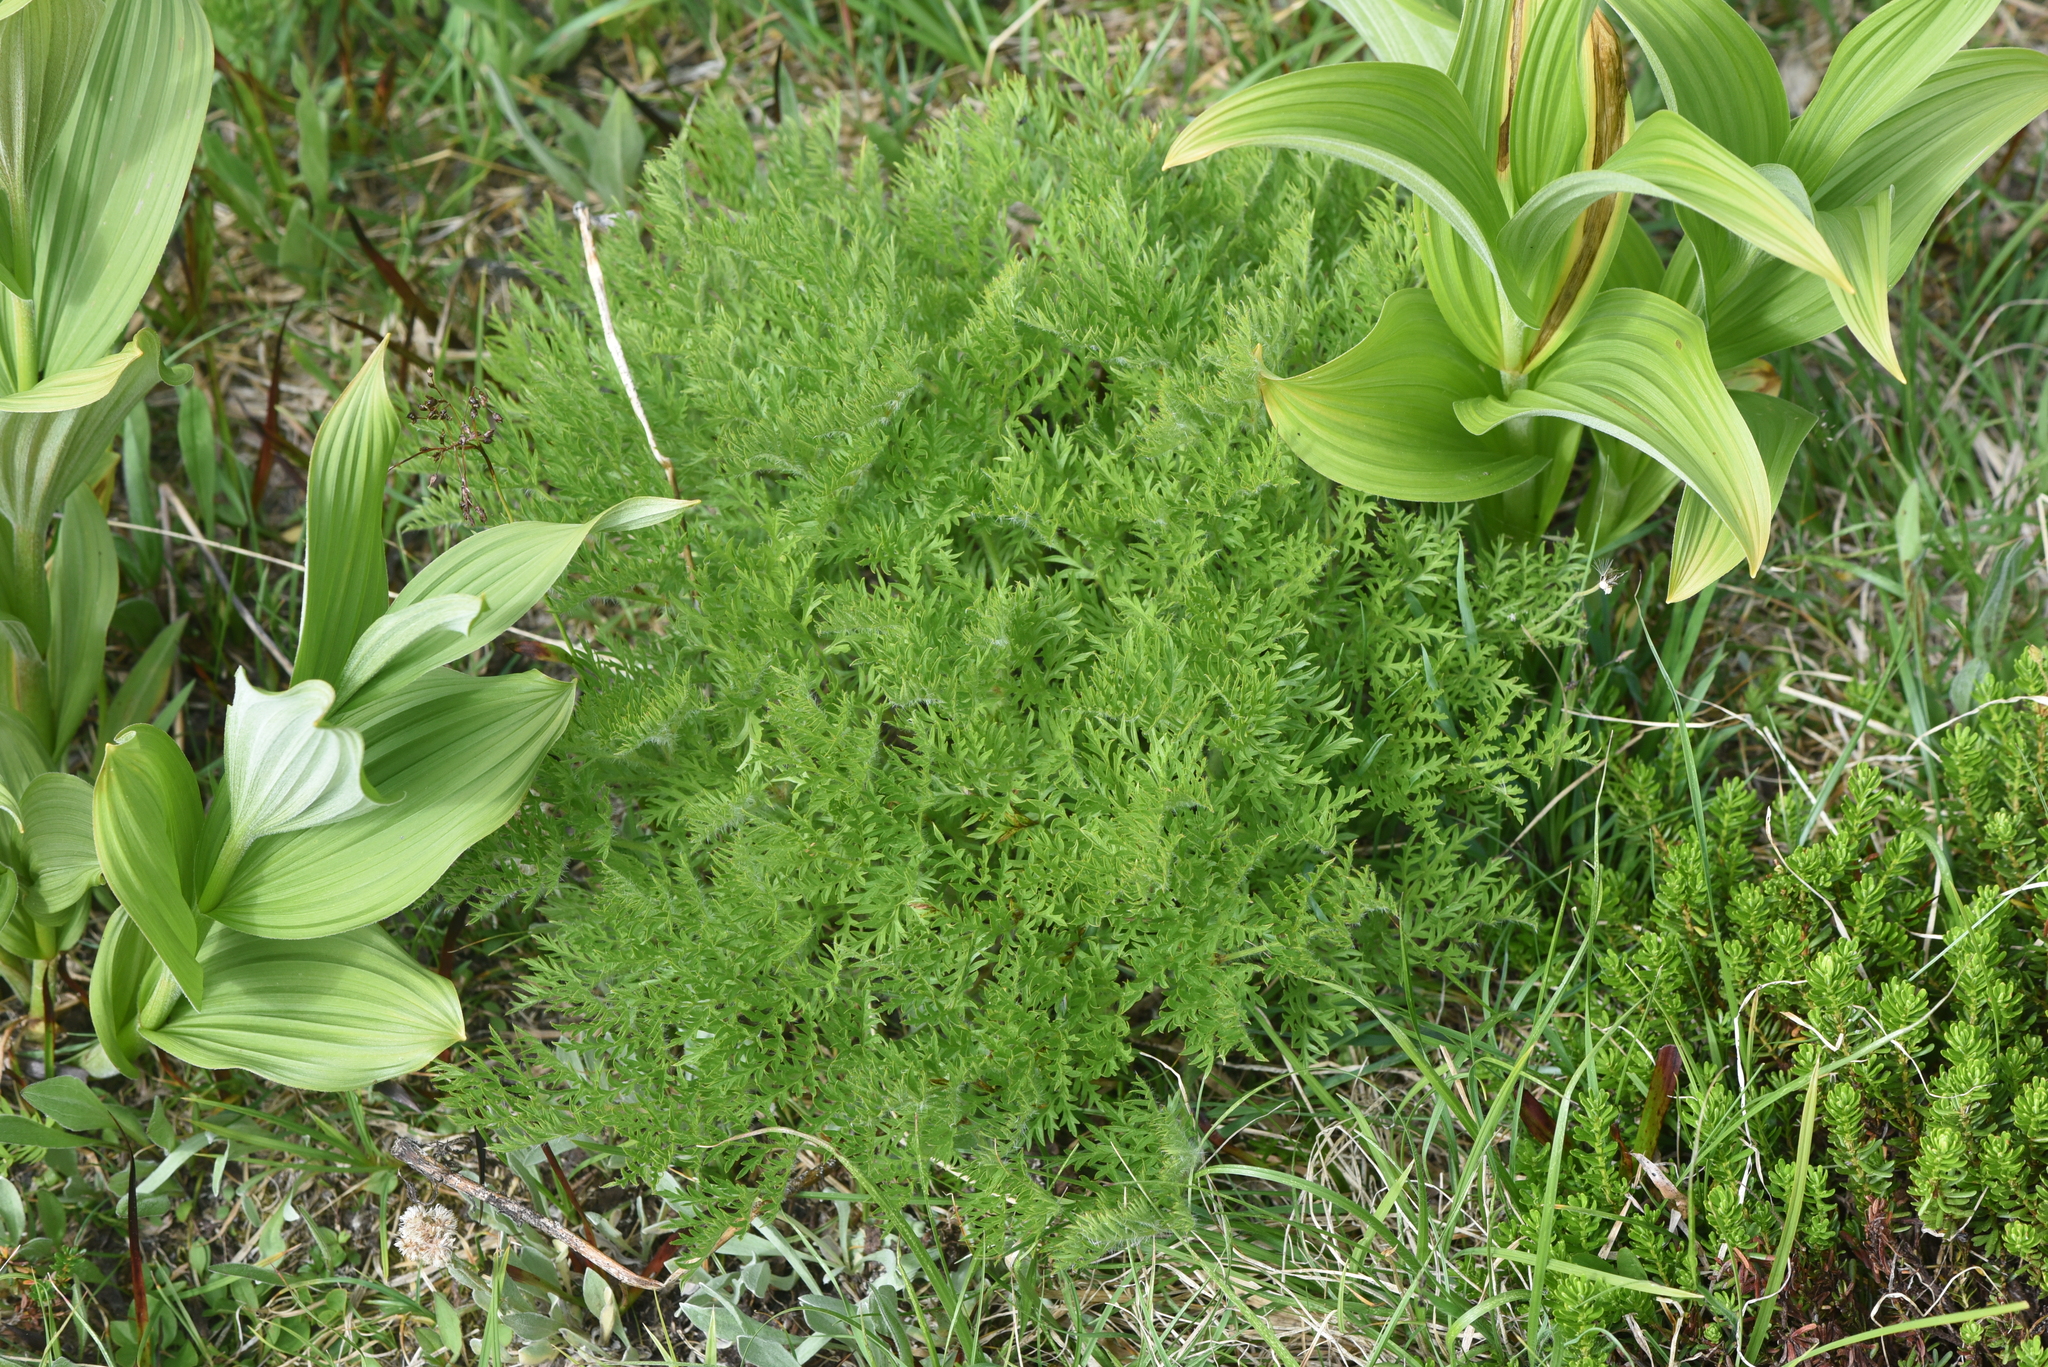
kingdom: Plantae
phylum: Tracheophyta
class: Magnoliopsida
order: Ranunculales
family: Ranunculaceae
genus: Pulsatilla
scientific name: Pulsatilla occidentalis
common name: Mountain pasqueflower
